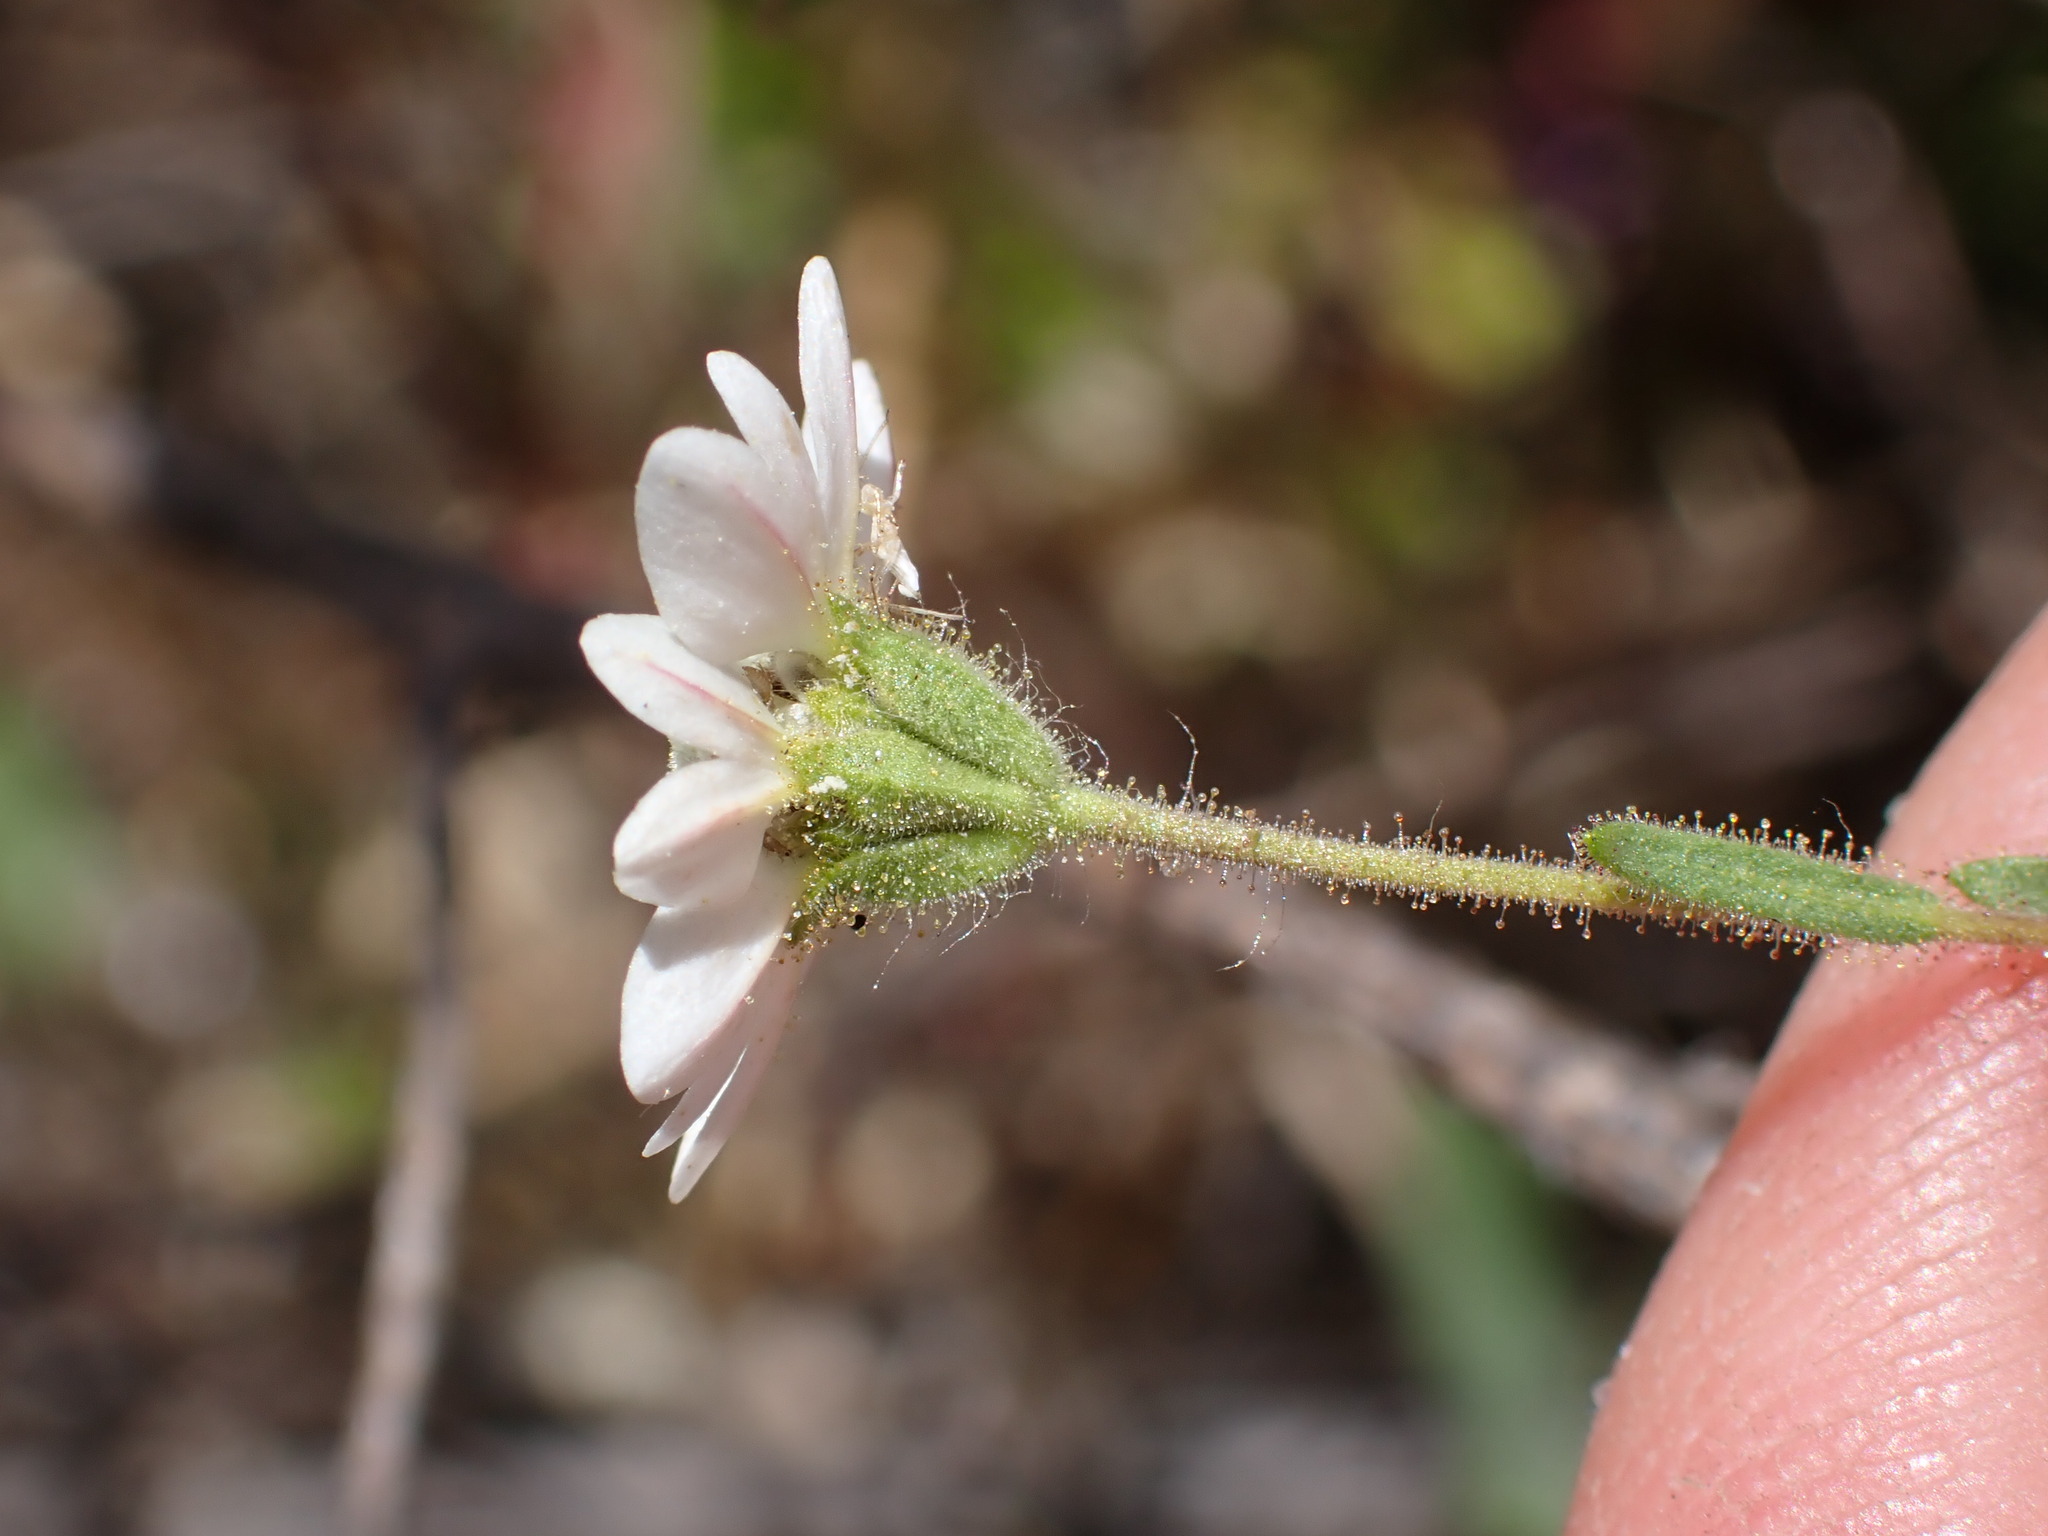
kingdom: Plantae
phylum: Tracheophyta
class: Magnoliopsida
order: Asterales
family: Asteraceae
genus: Hemizonia
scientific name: Hemizonia congesta
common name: Hayfield tarweed
